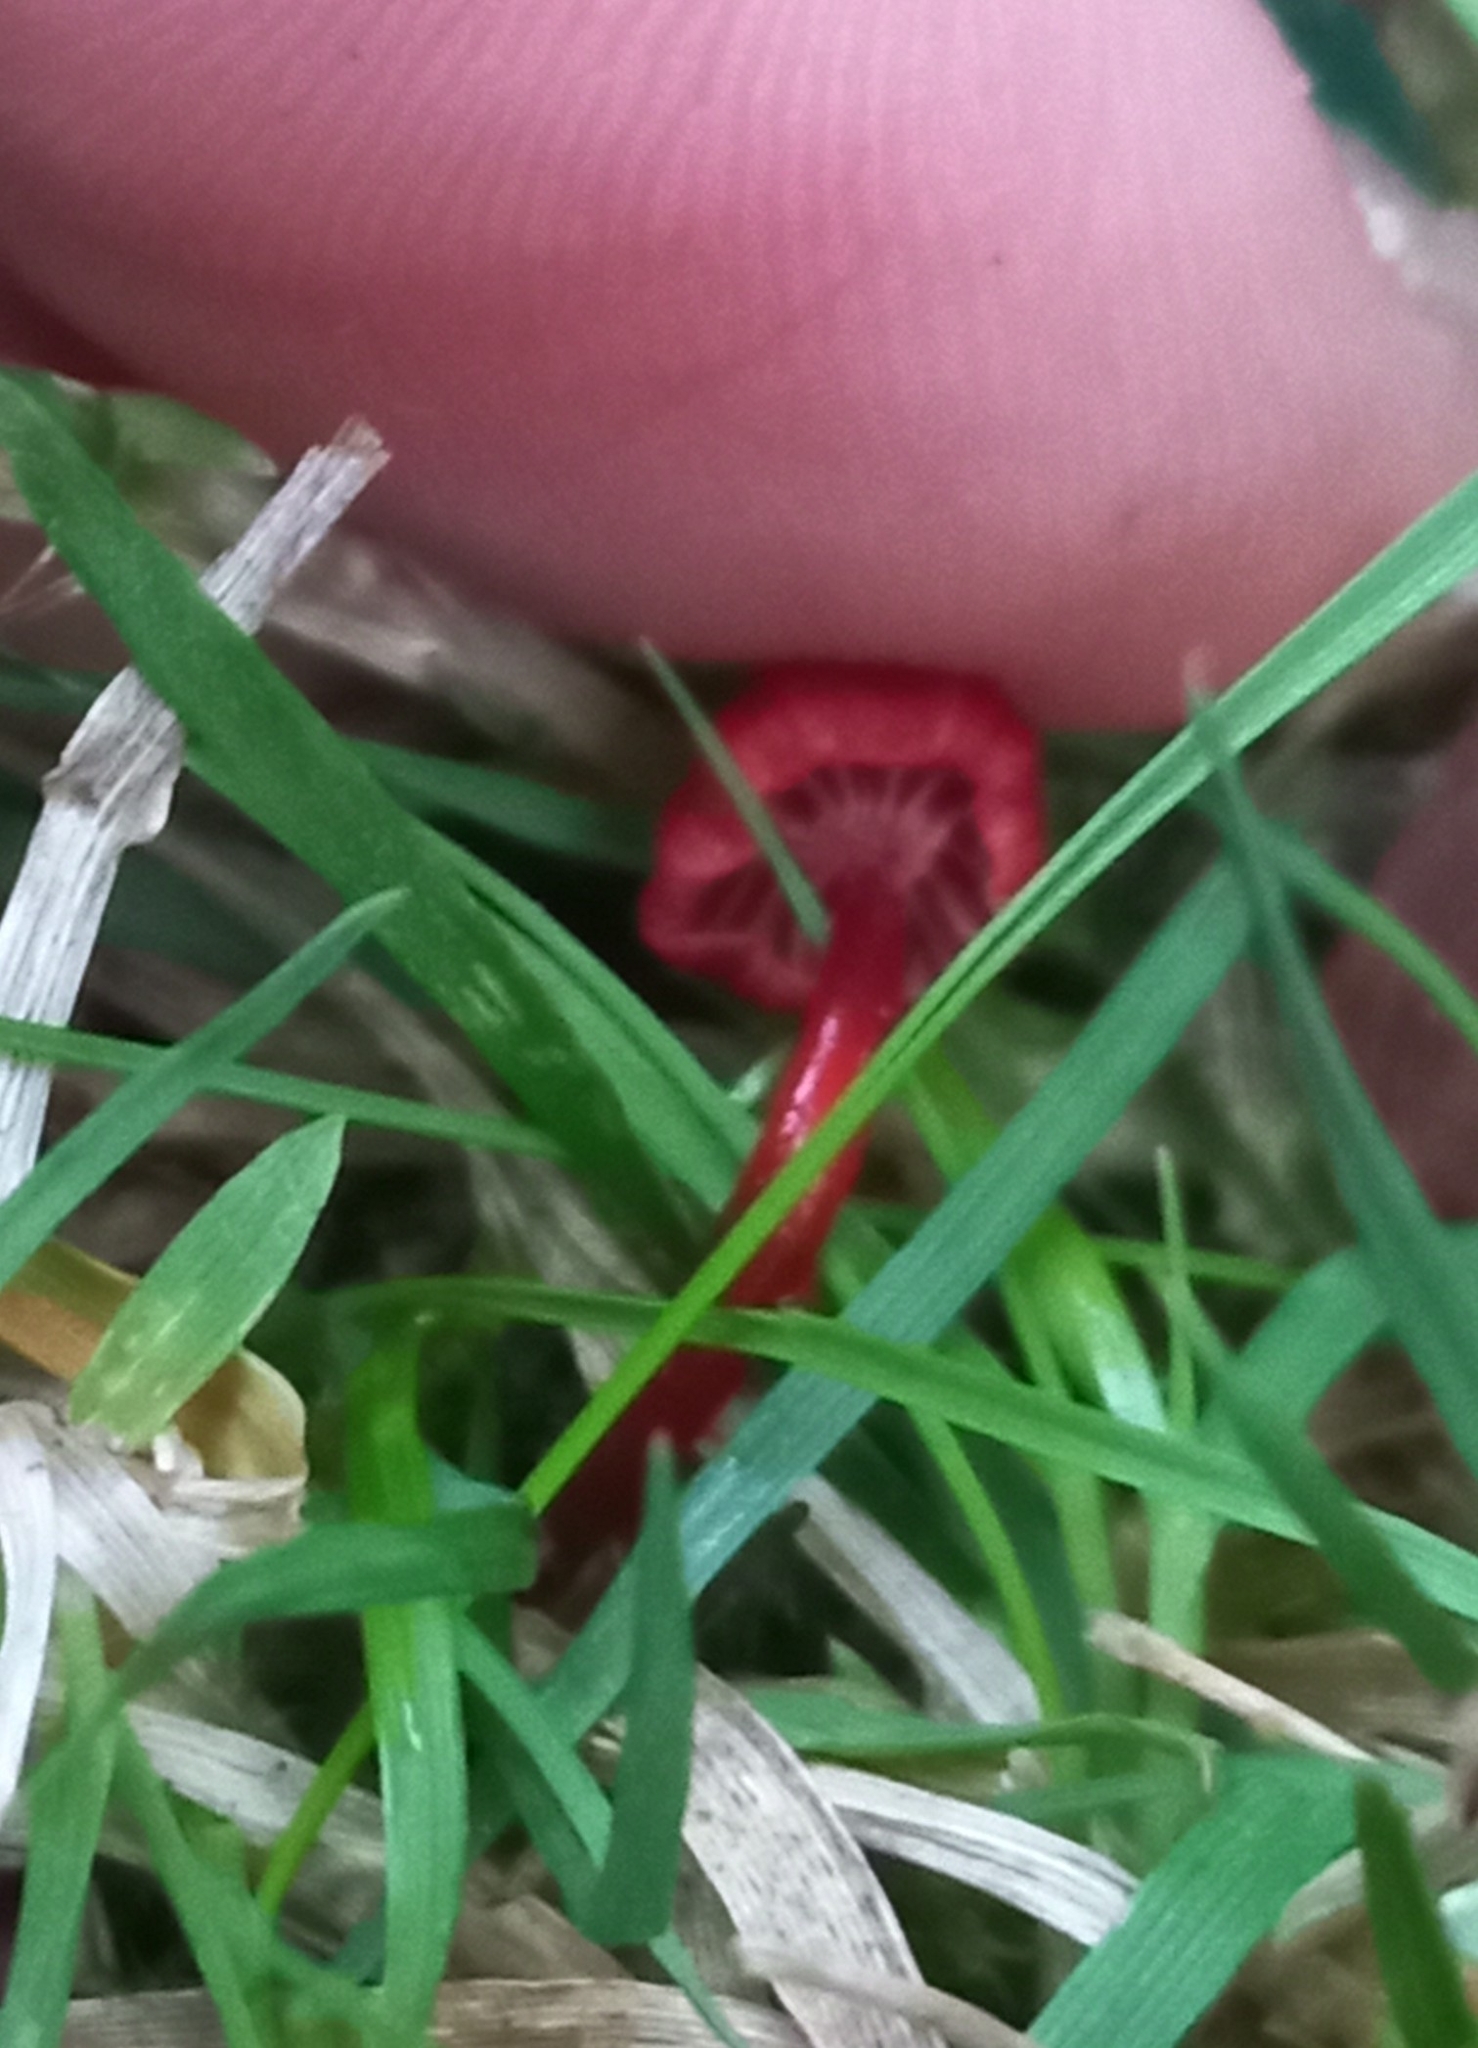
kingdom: Fungi
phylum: Basidiomycota
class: Agaricomycetes
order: Agaricales
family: Mycenaceae
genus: Cruentomycena
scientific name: Cruentomycena viscidocruenta
